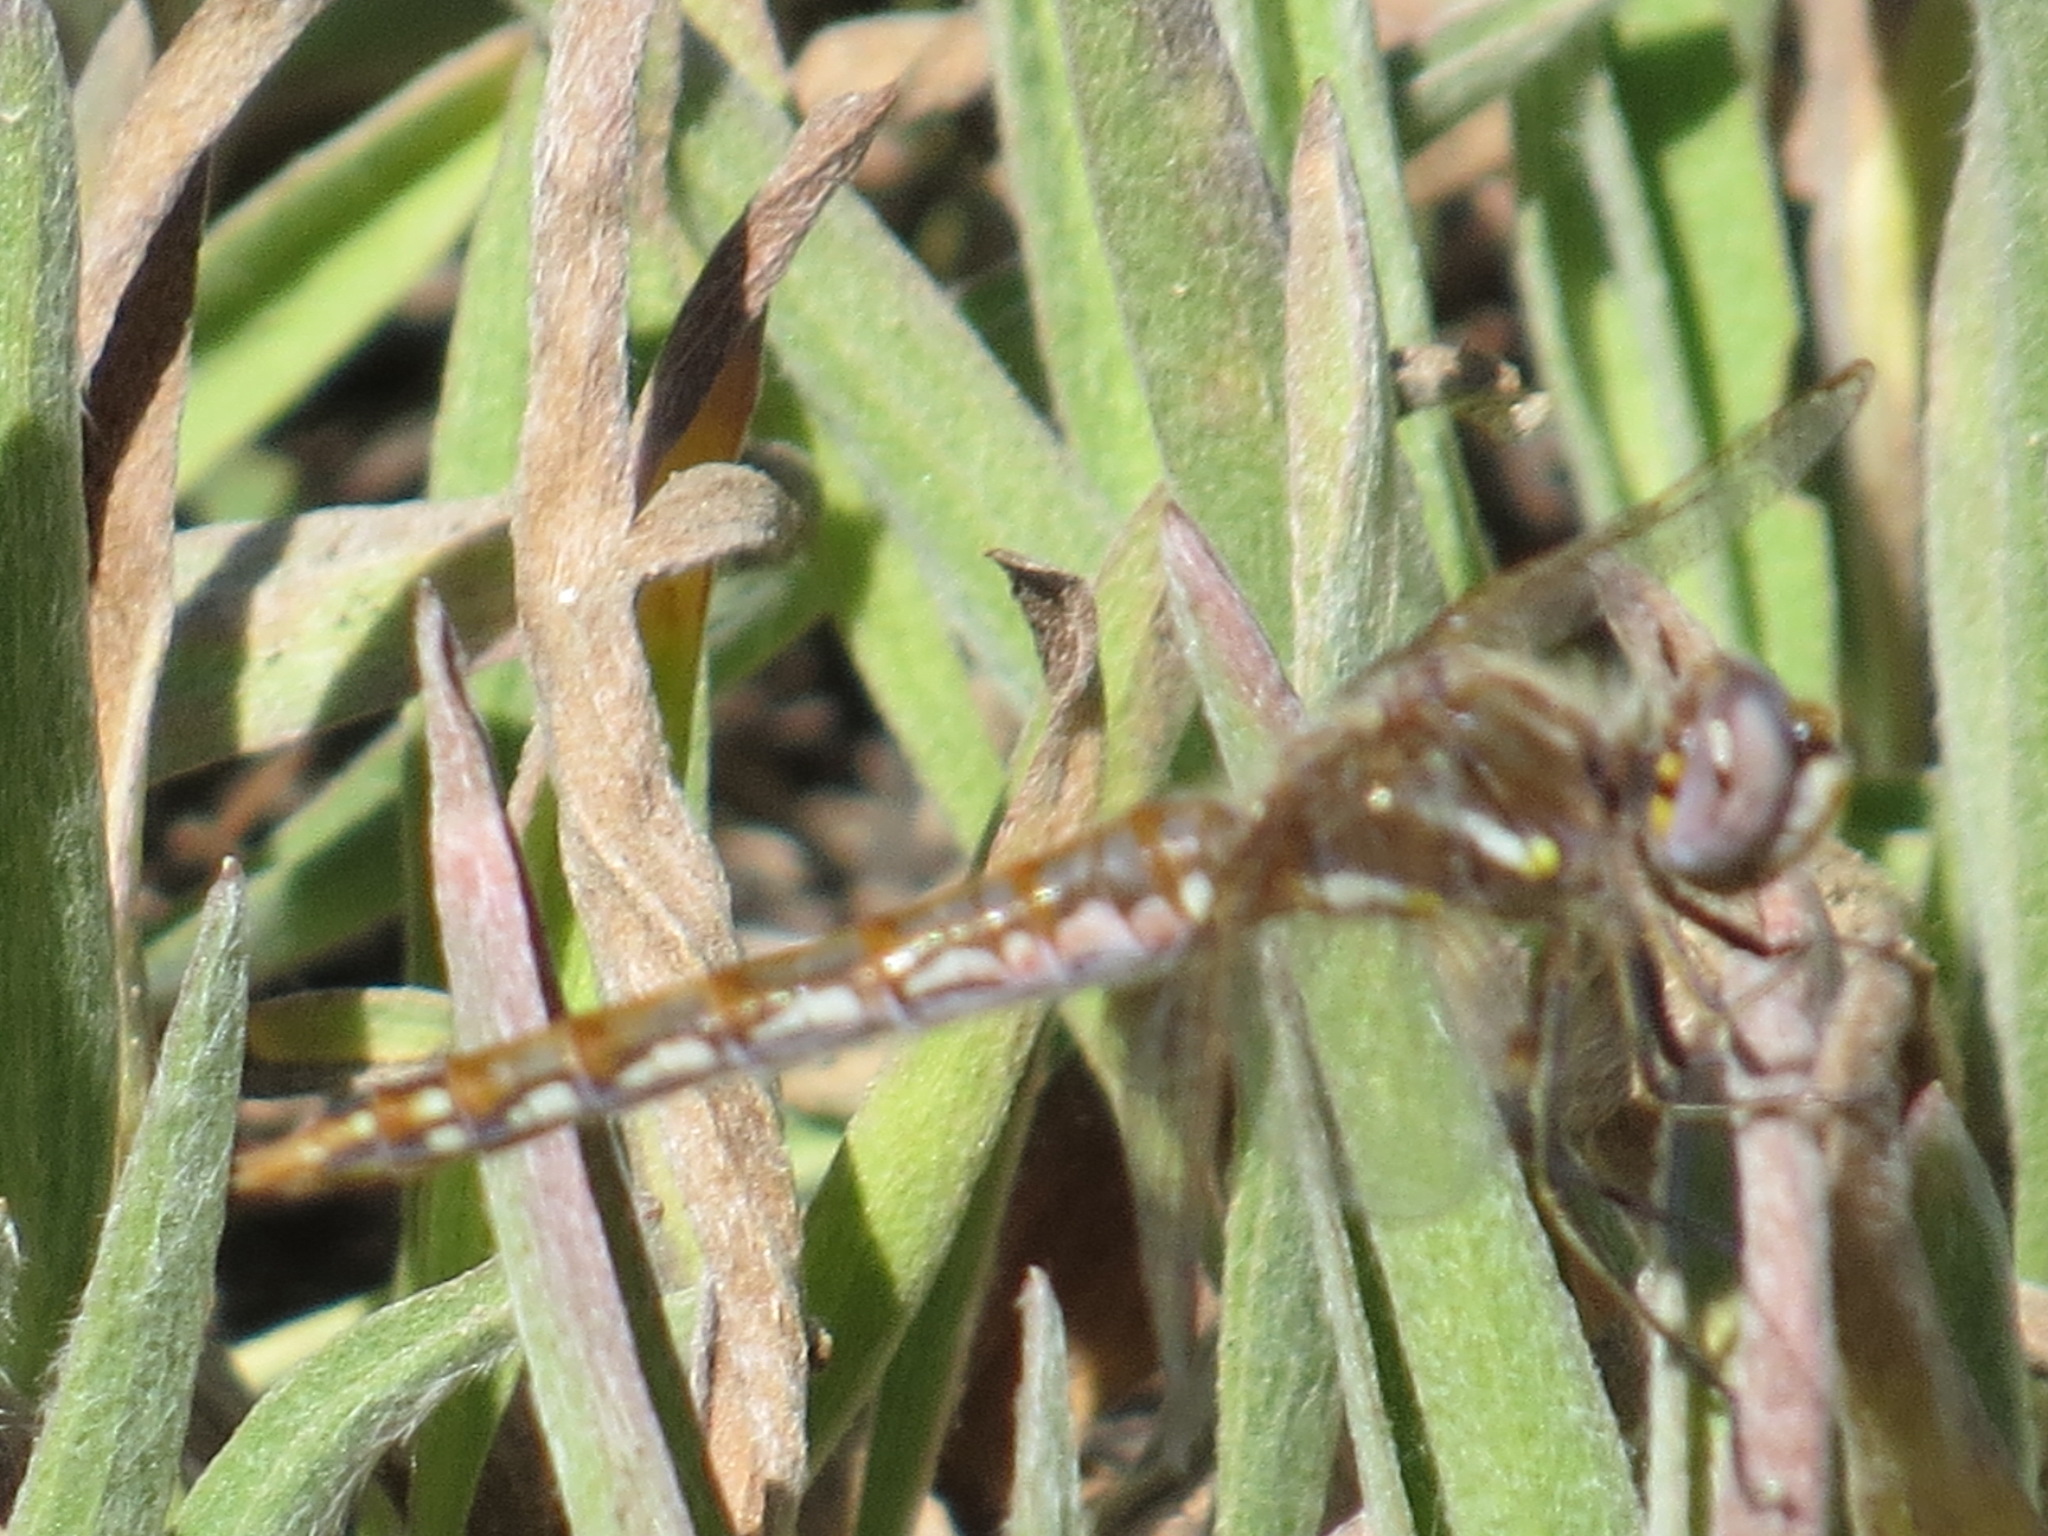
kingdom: Animalia
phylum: Arthropoda
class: Insecta
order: Odonata
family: Libellulidae
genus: Sympetrum
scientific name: Sympetrum corruptum
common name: Variegated meadowhawk
